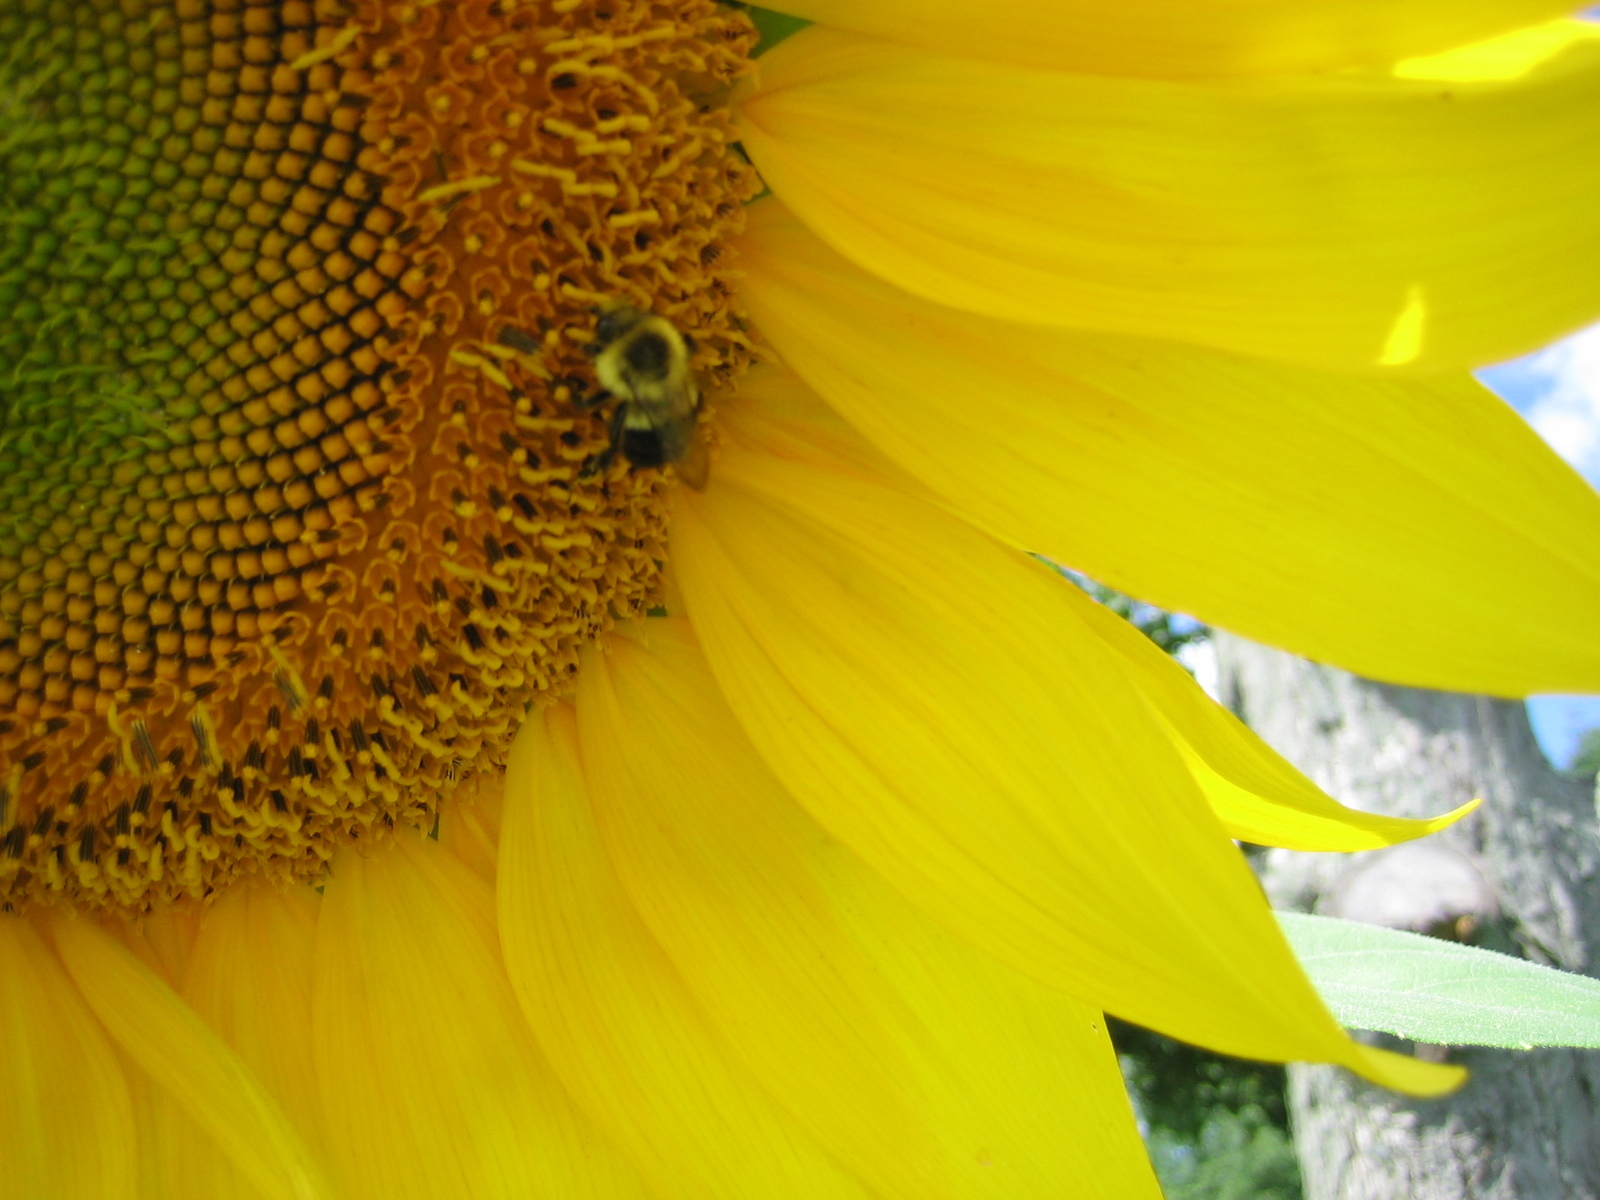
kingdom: Animalia
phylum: Arthropoda
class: Insecta
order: Hymenoptera
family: Apidae
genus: Bombus
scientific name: Bombus impatiens
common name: Common eastern bumble bee
